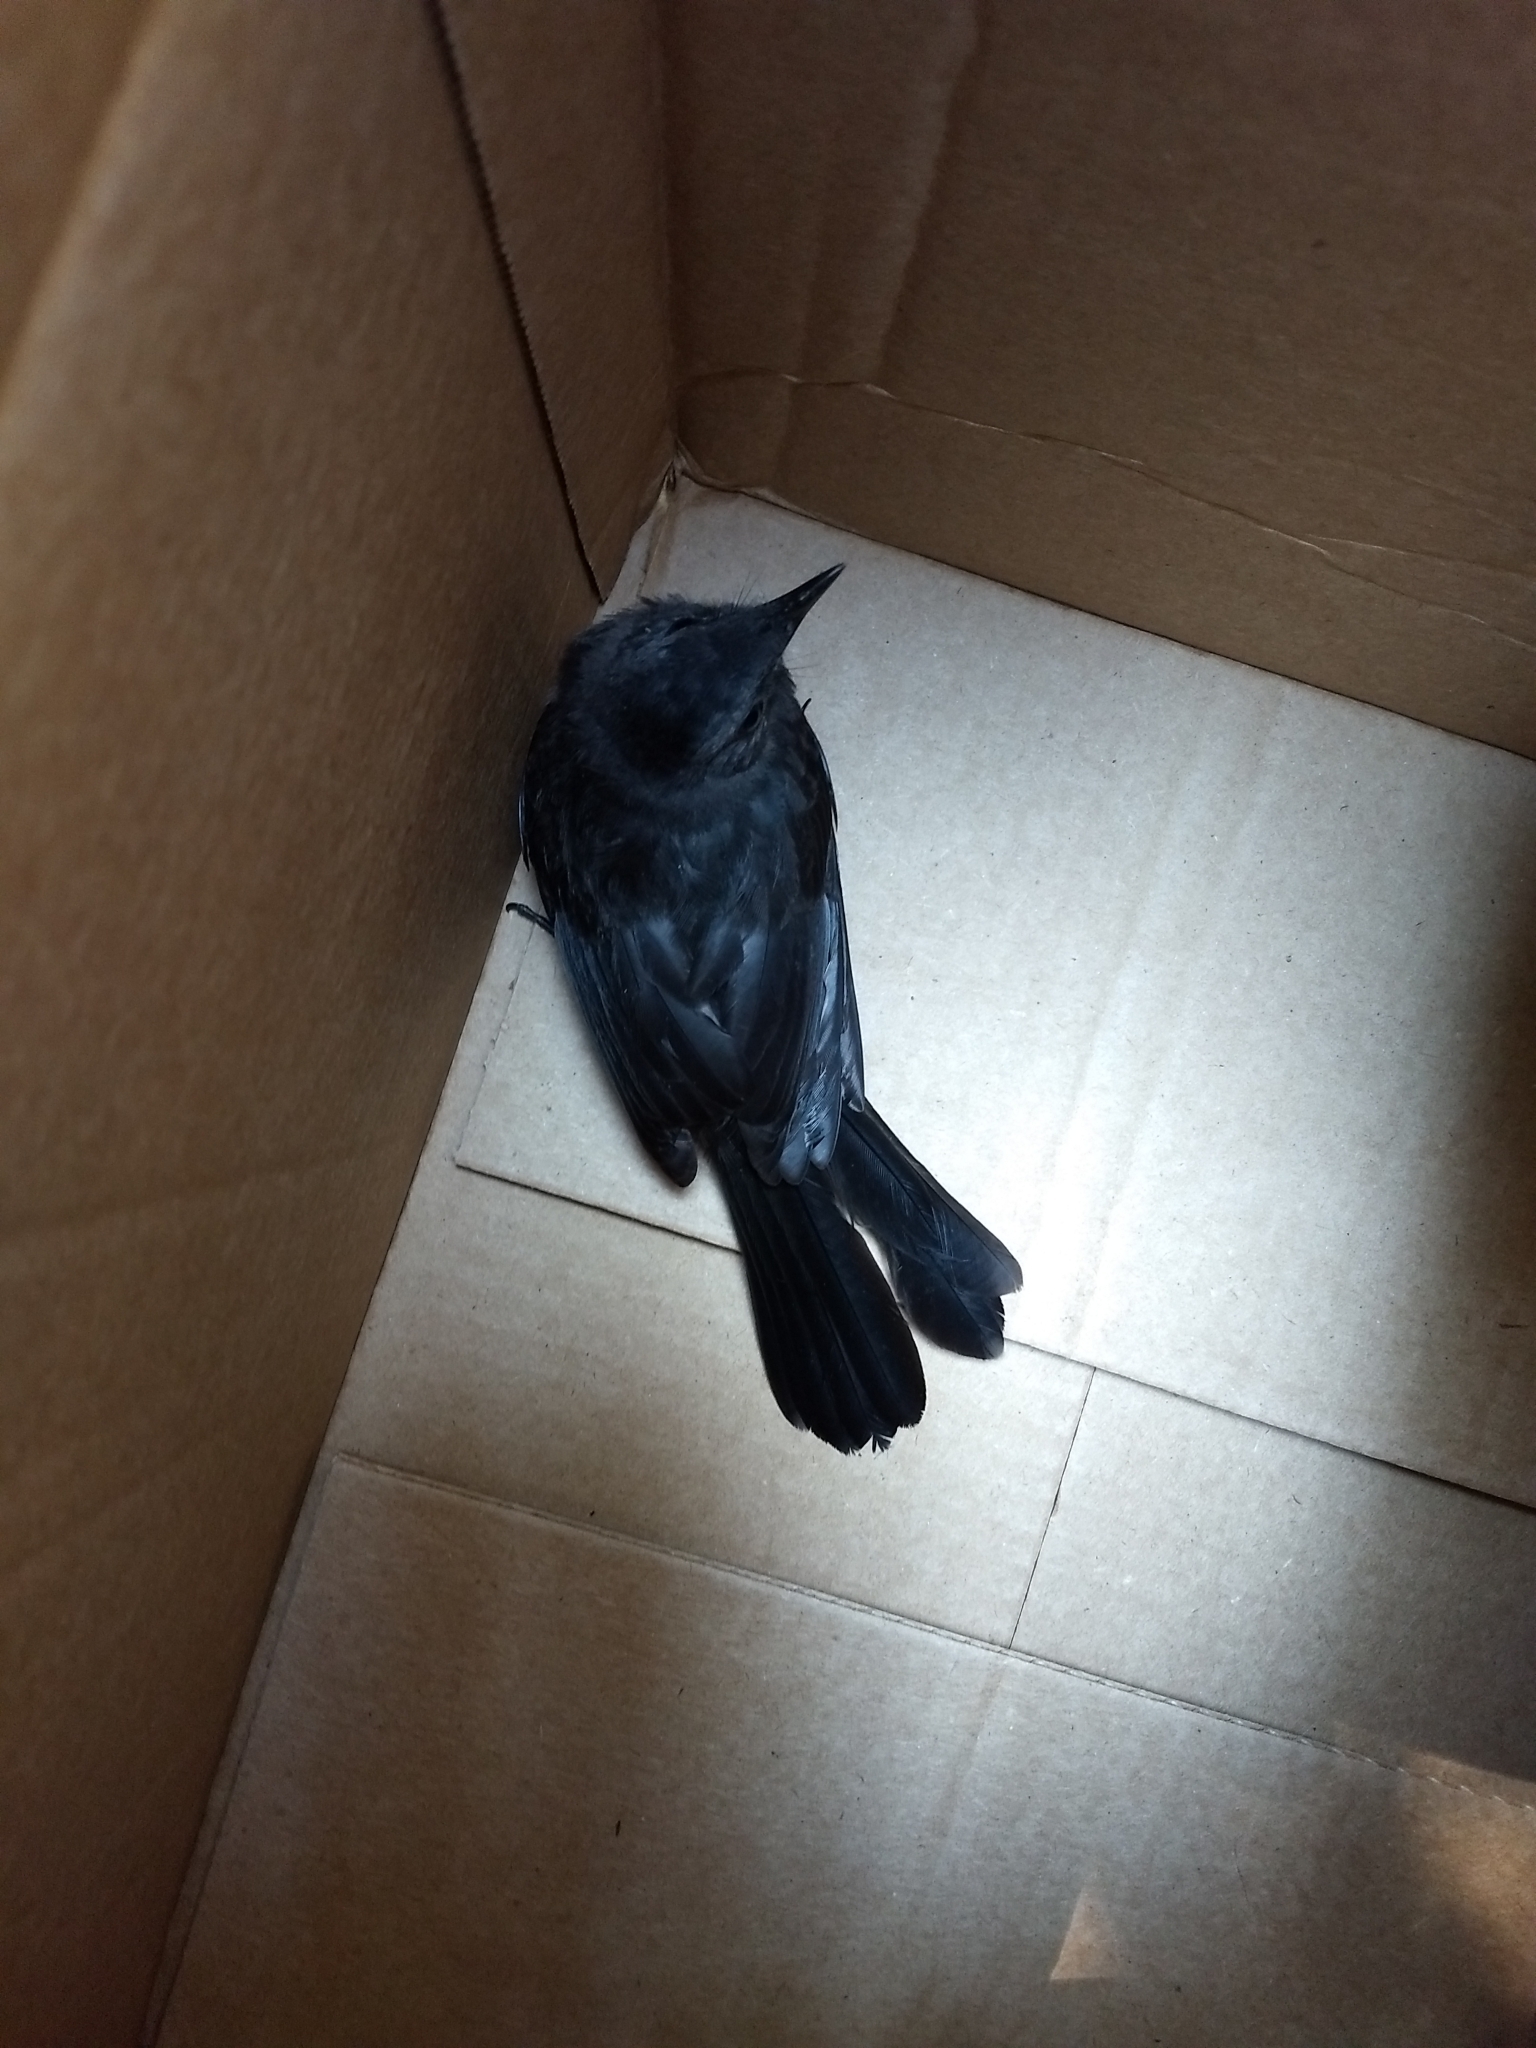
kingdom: Animalia
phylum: Chordata
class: Aves
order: Passeriformes
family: Mimidae
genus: Dumetella
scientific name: Dumetella carolinensis
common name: Gray catbird
